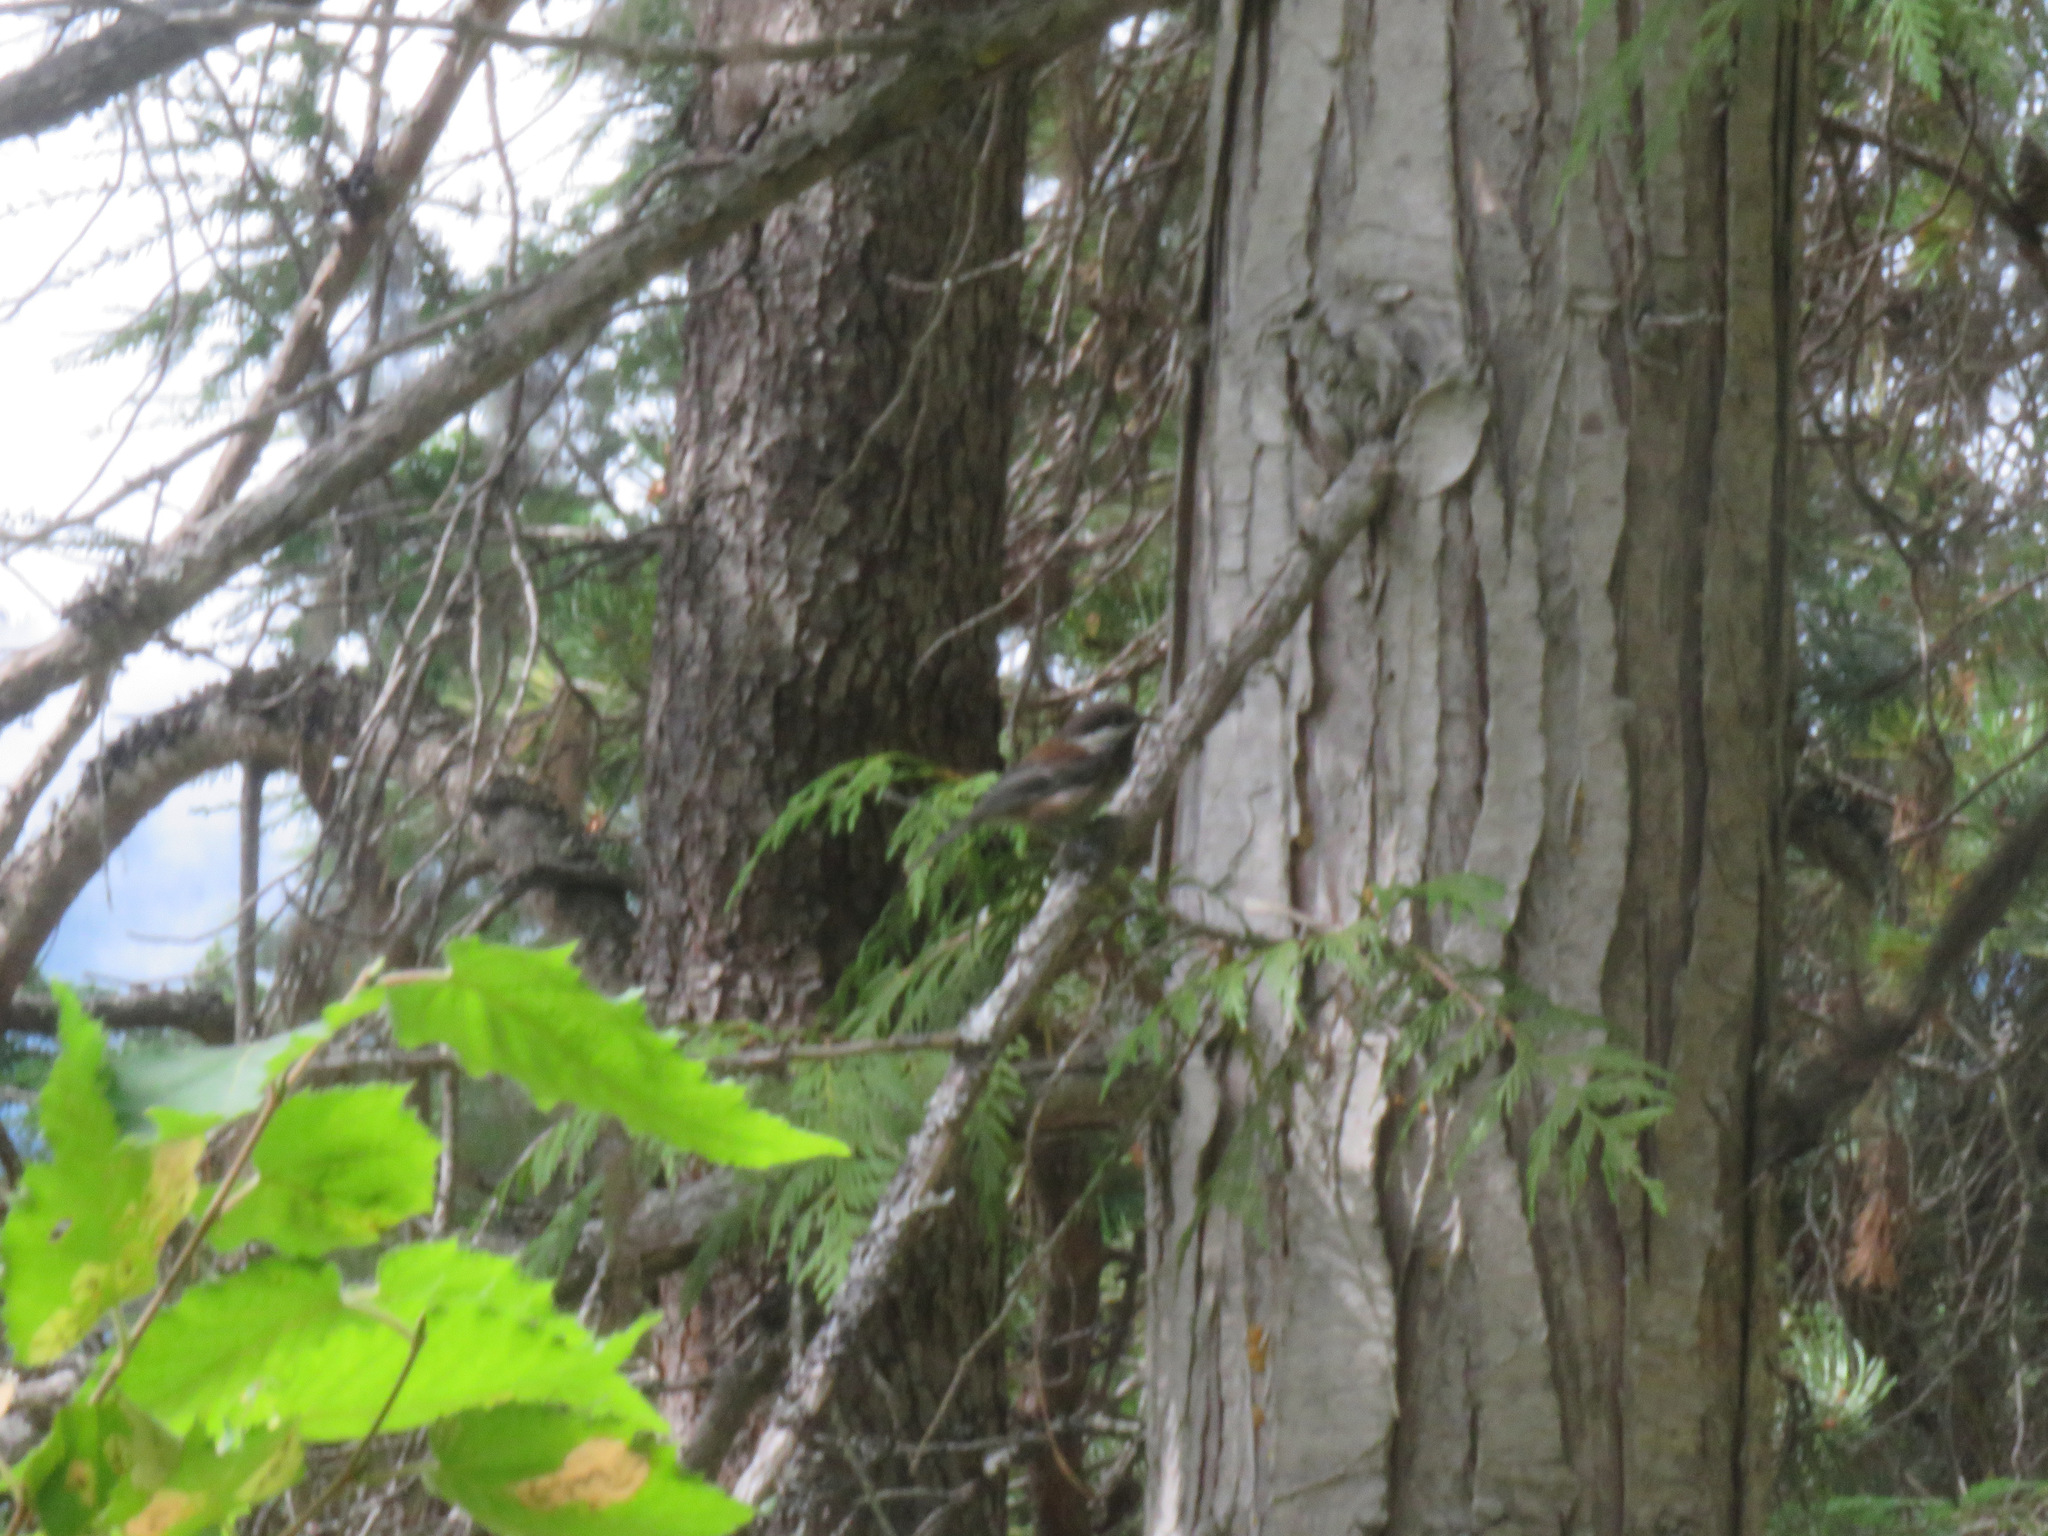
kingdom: Animalia
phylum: Chordata
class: Aves
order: Passeriformes
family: Paridae
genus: Poecile
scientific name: Poecile rufescens
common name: Chestnut-backed chickadee
